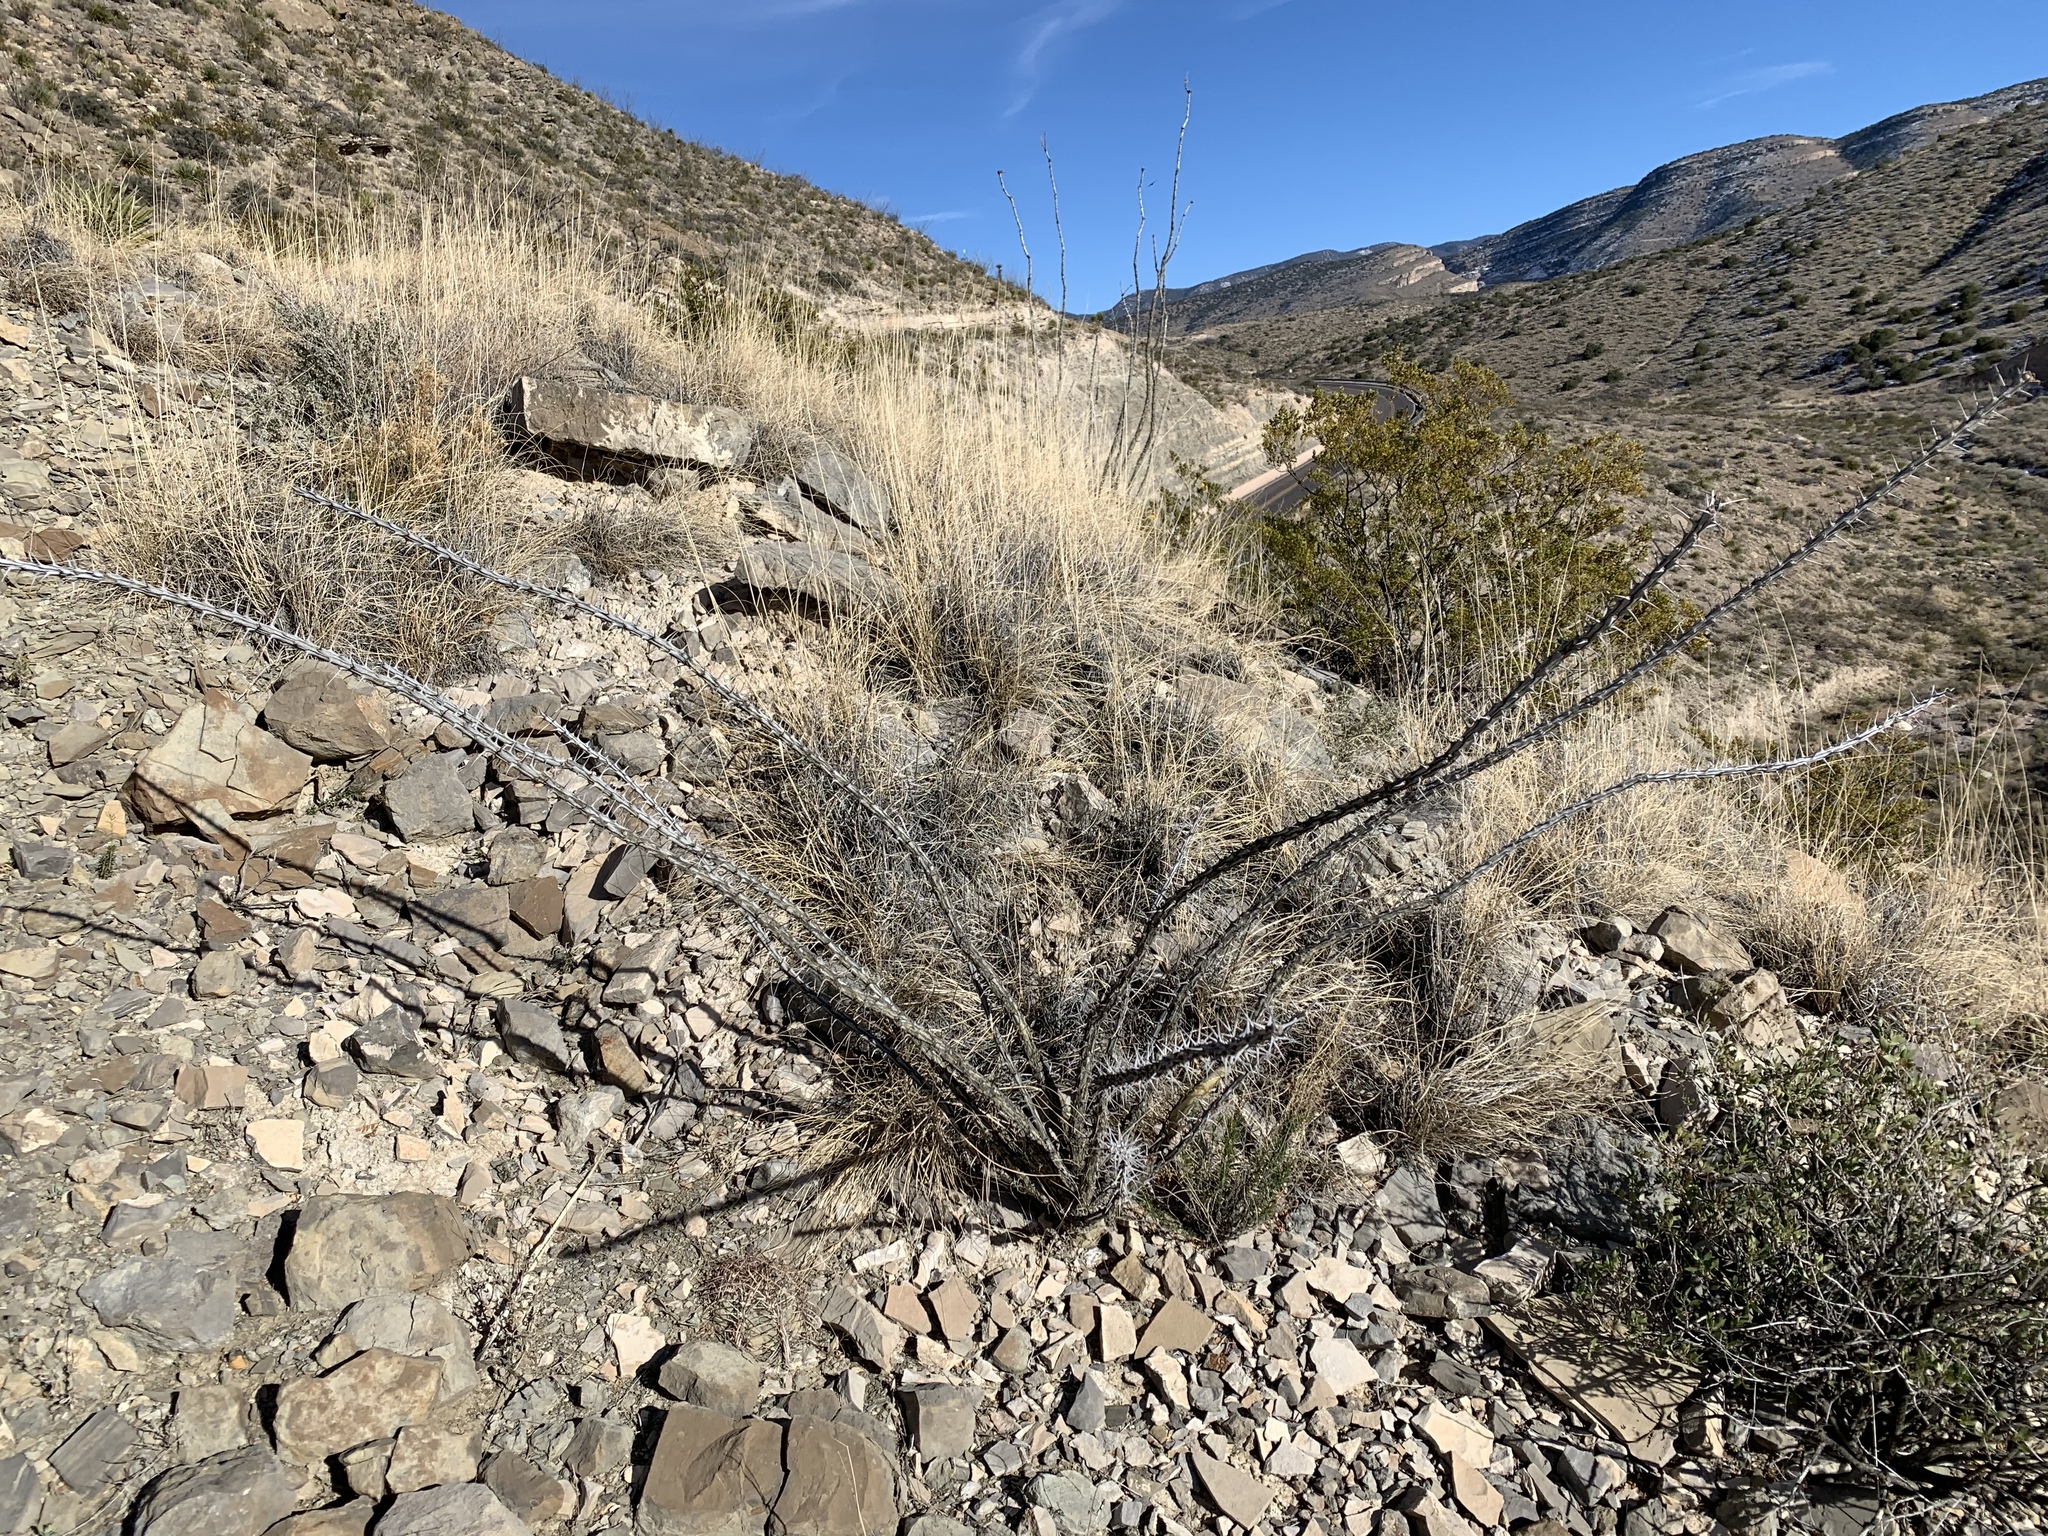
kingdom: Plantae
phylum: Tracheophyta
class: Magnoliopsida
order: Ericales
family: Fouquieriaceae
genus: Fouquieria
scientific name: Fouquieria splendens
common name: Vine-cactus
